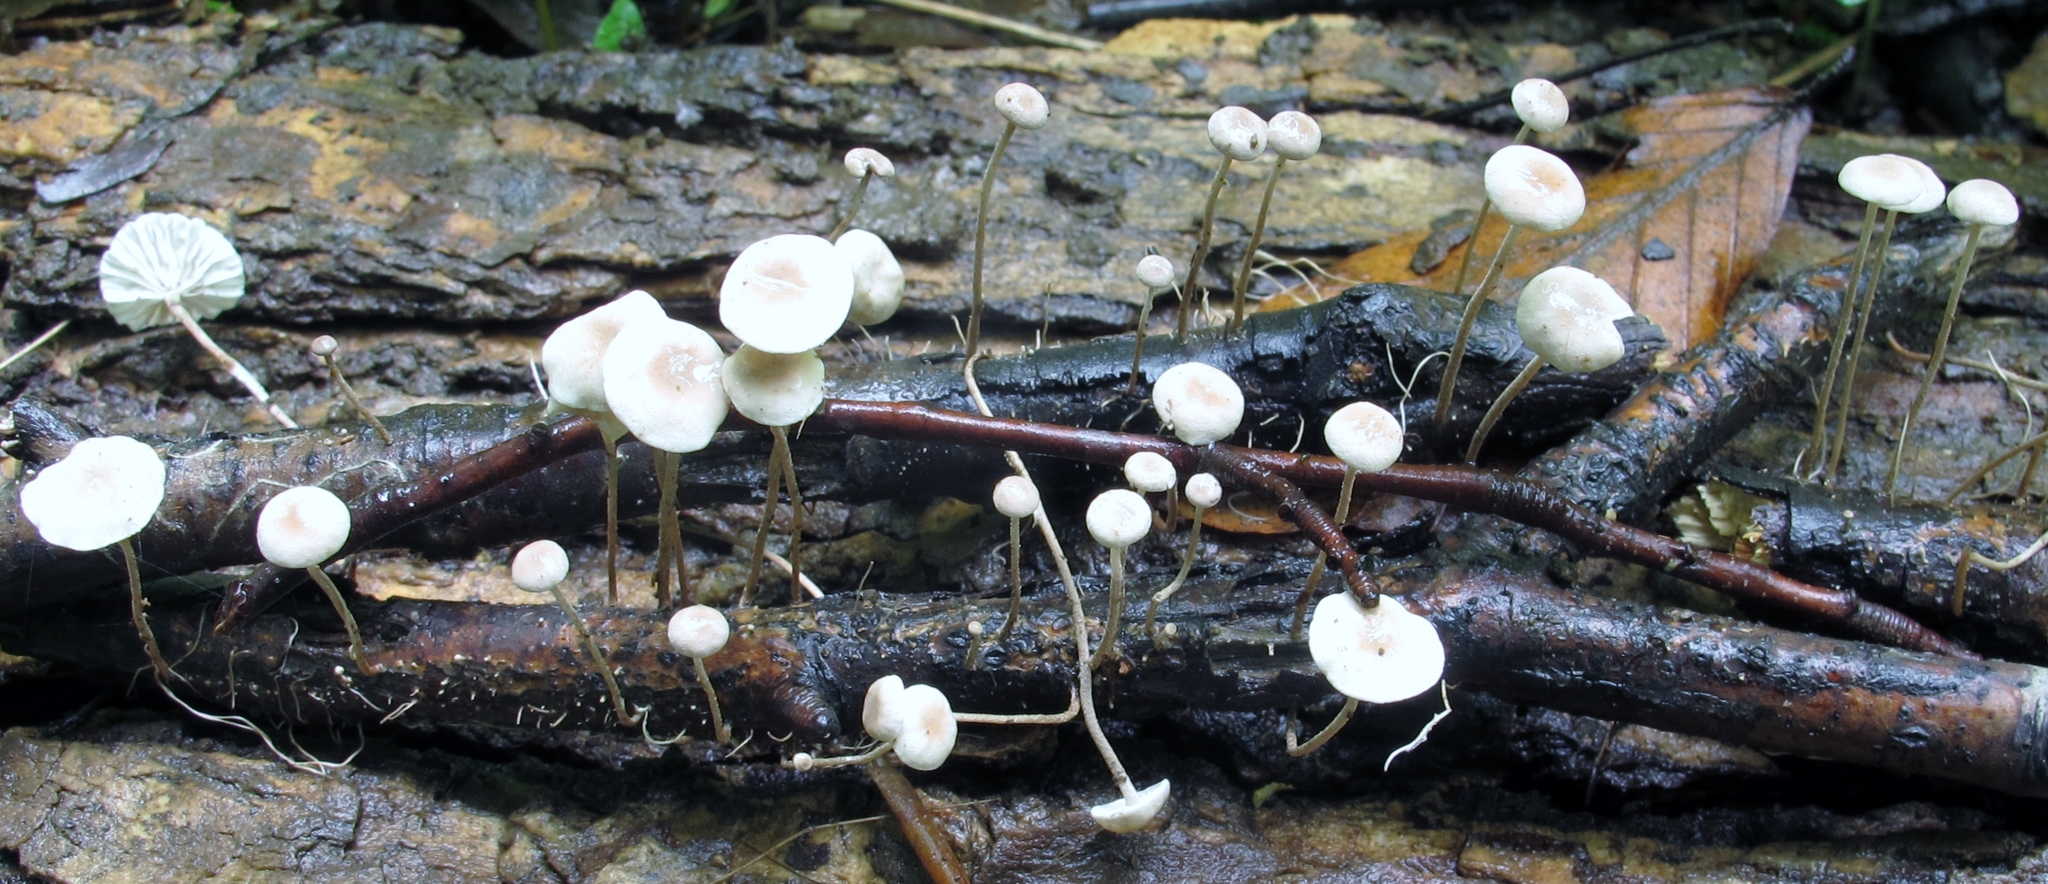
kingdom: Fungi
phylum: Basidiomycota
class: Agaricomycetes
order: Agaricales
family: Omphalotaceae
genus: Mycetinis
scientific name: Mycetinis opacus
